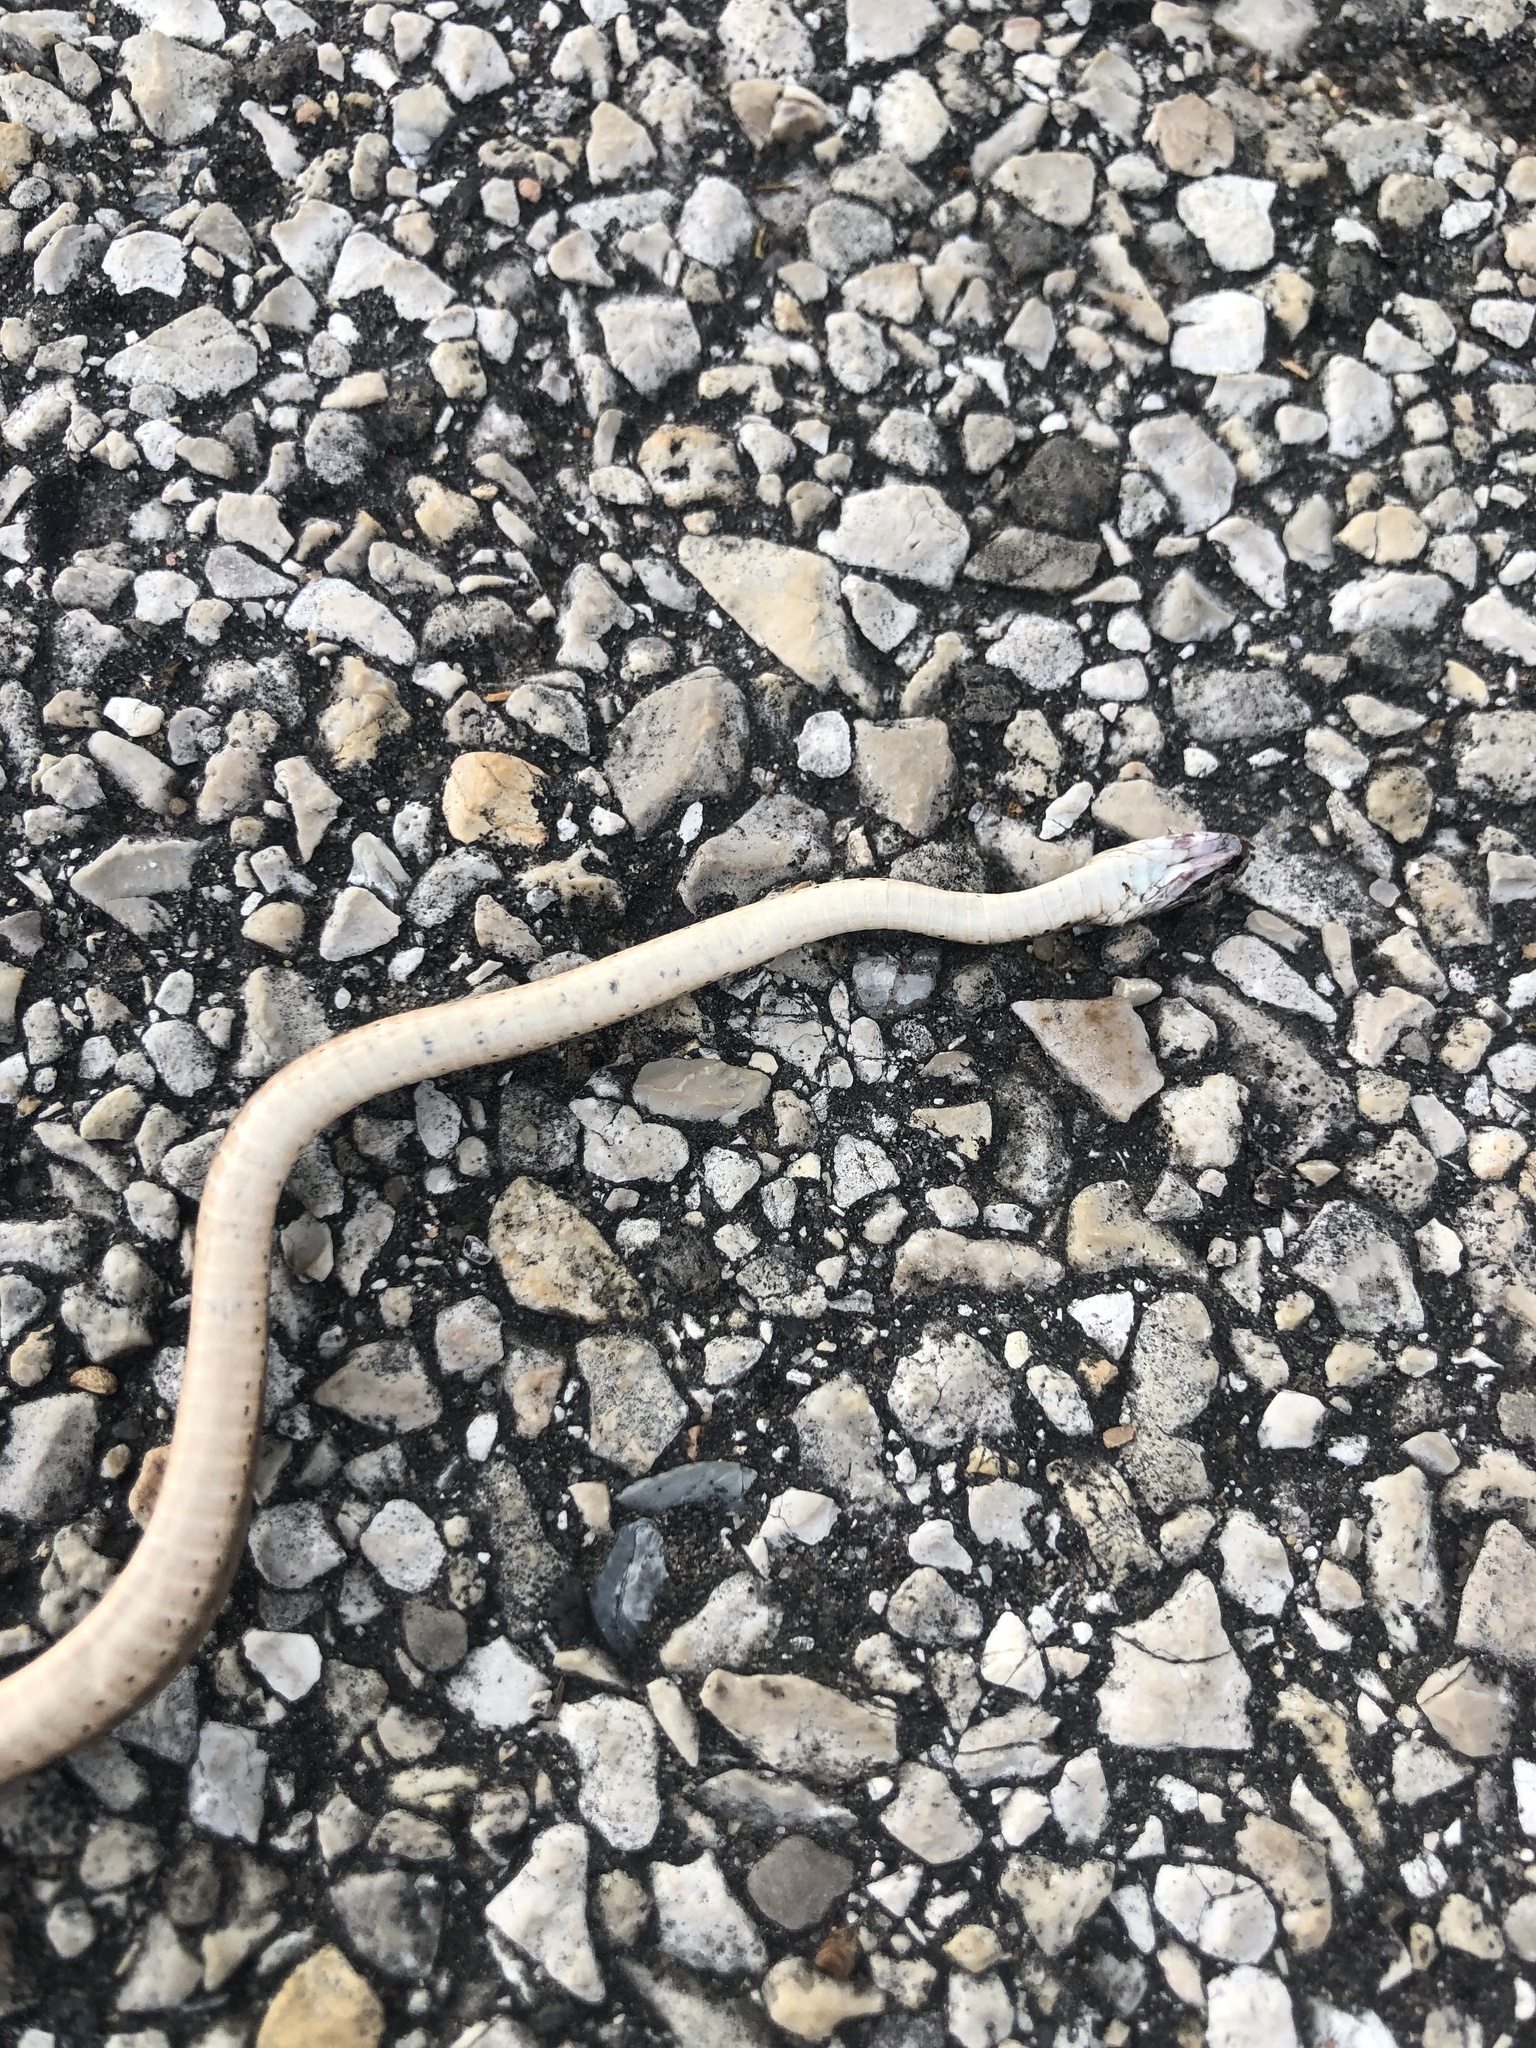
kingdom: Animalia
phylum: Chordata
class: Squamata
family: Colubridae
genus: Storeria
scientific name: Storeria dekayi
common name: (dekay’s) brown snake
